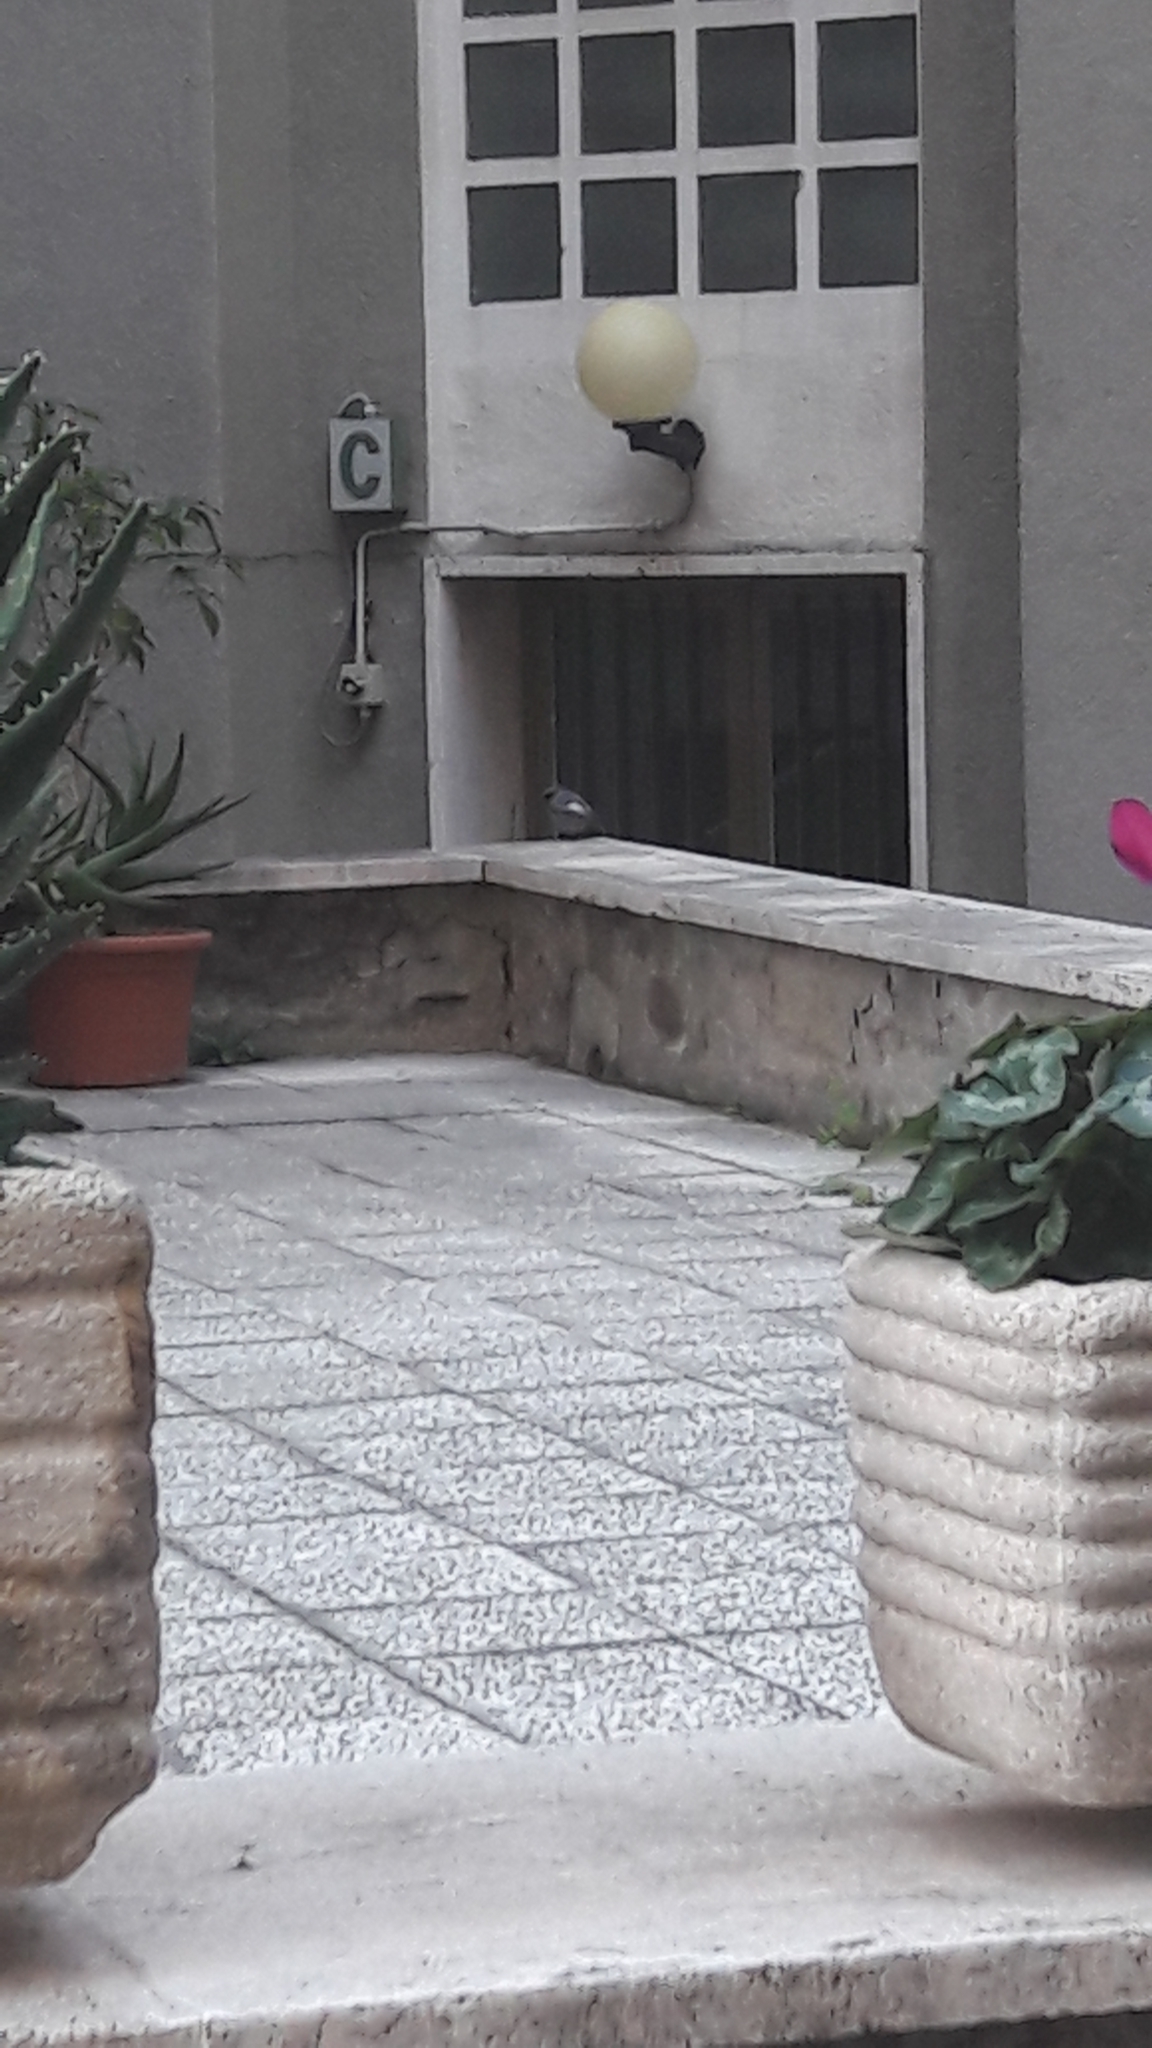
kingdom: Animalia
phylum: Chordata
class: Aves
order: Passeriformes
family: Muscicapidae
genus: Phoenicurus
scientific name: Phoenicurus ochruros
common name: Black redstart
